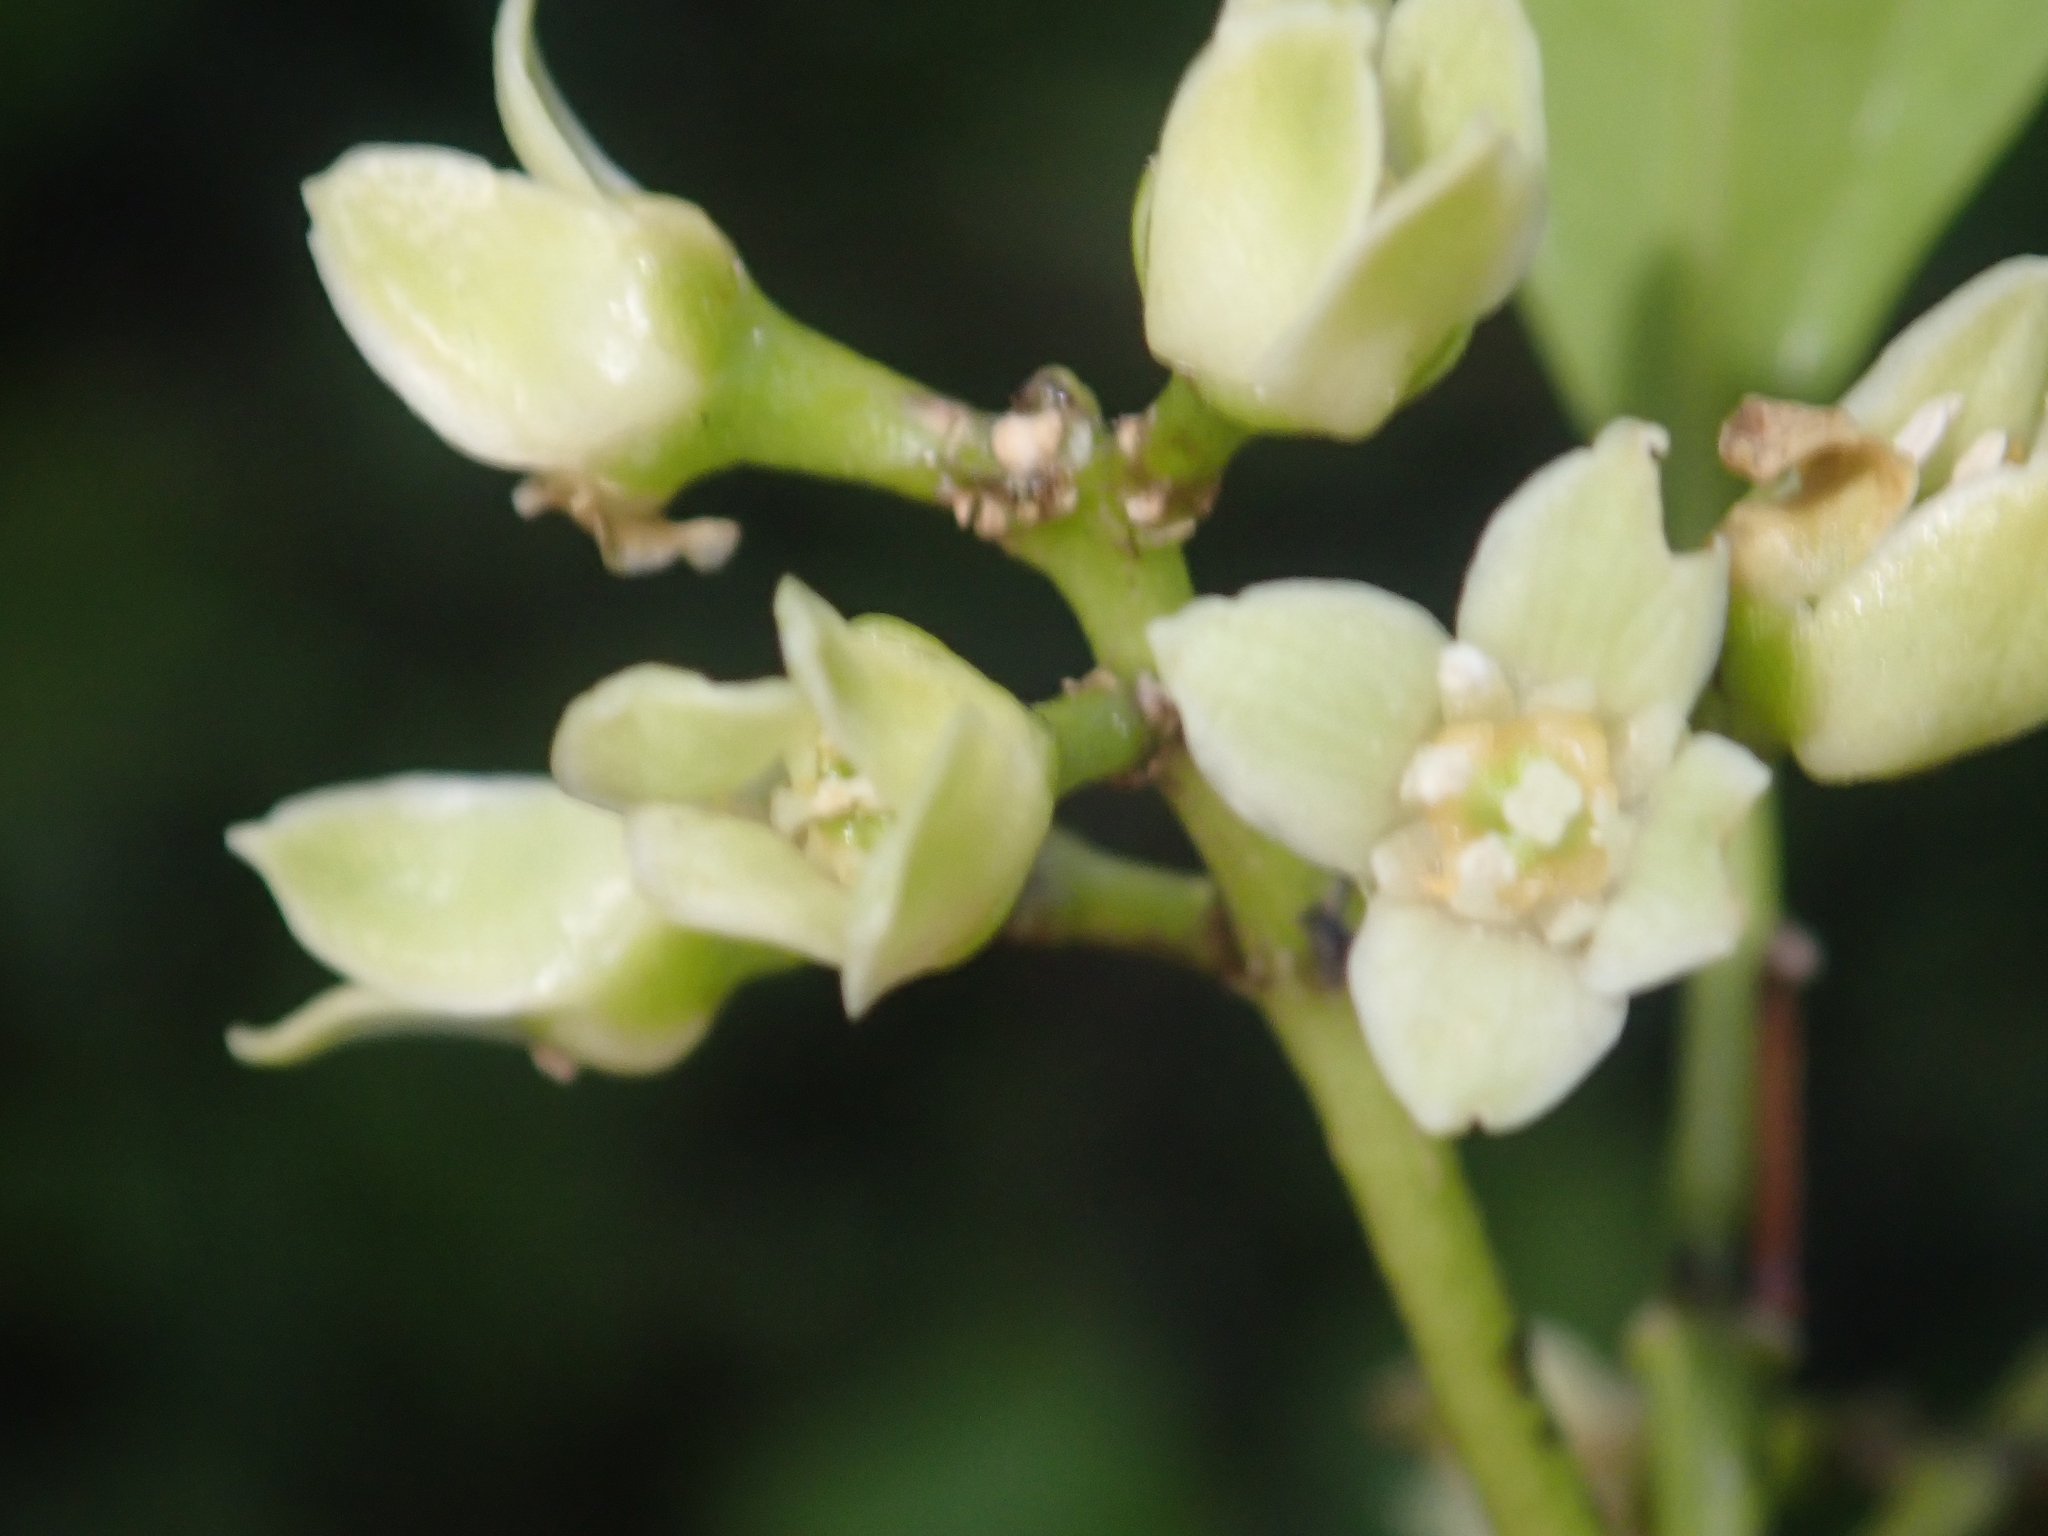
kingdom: Plantae
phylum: Tracheophyta
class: Magnoliopsida
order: Sapindales
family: Rutaceae
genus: Melicope
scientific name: Melicope ternata
